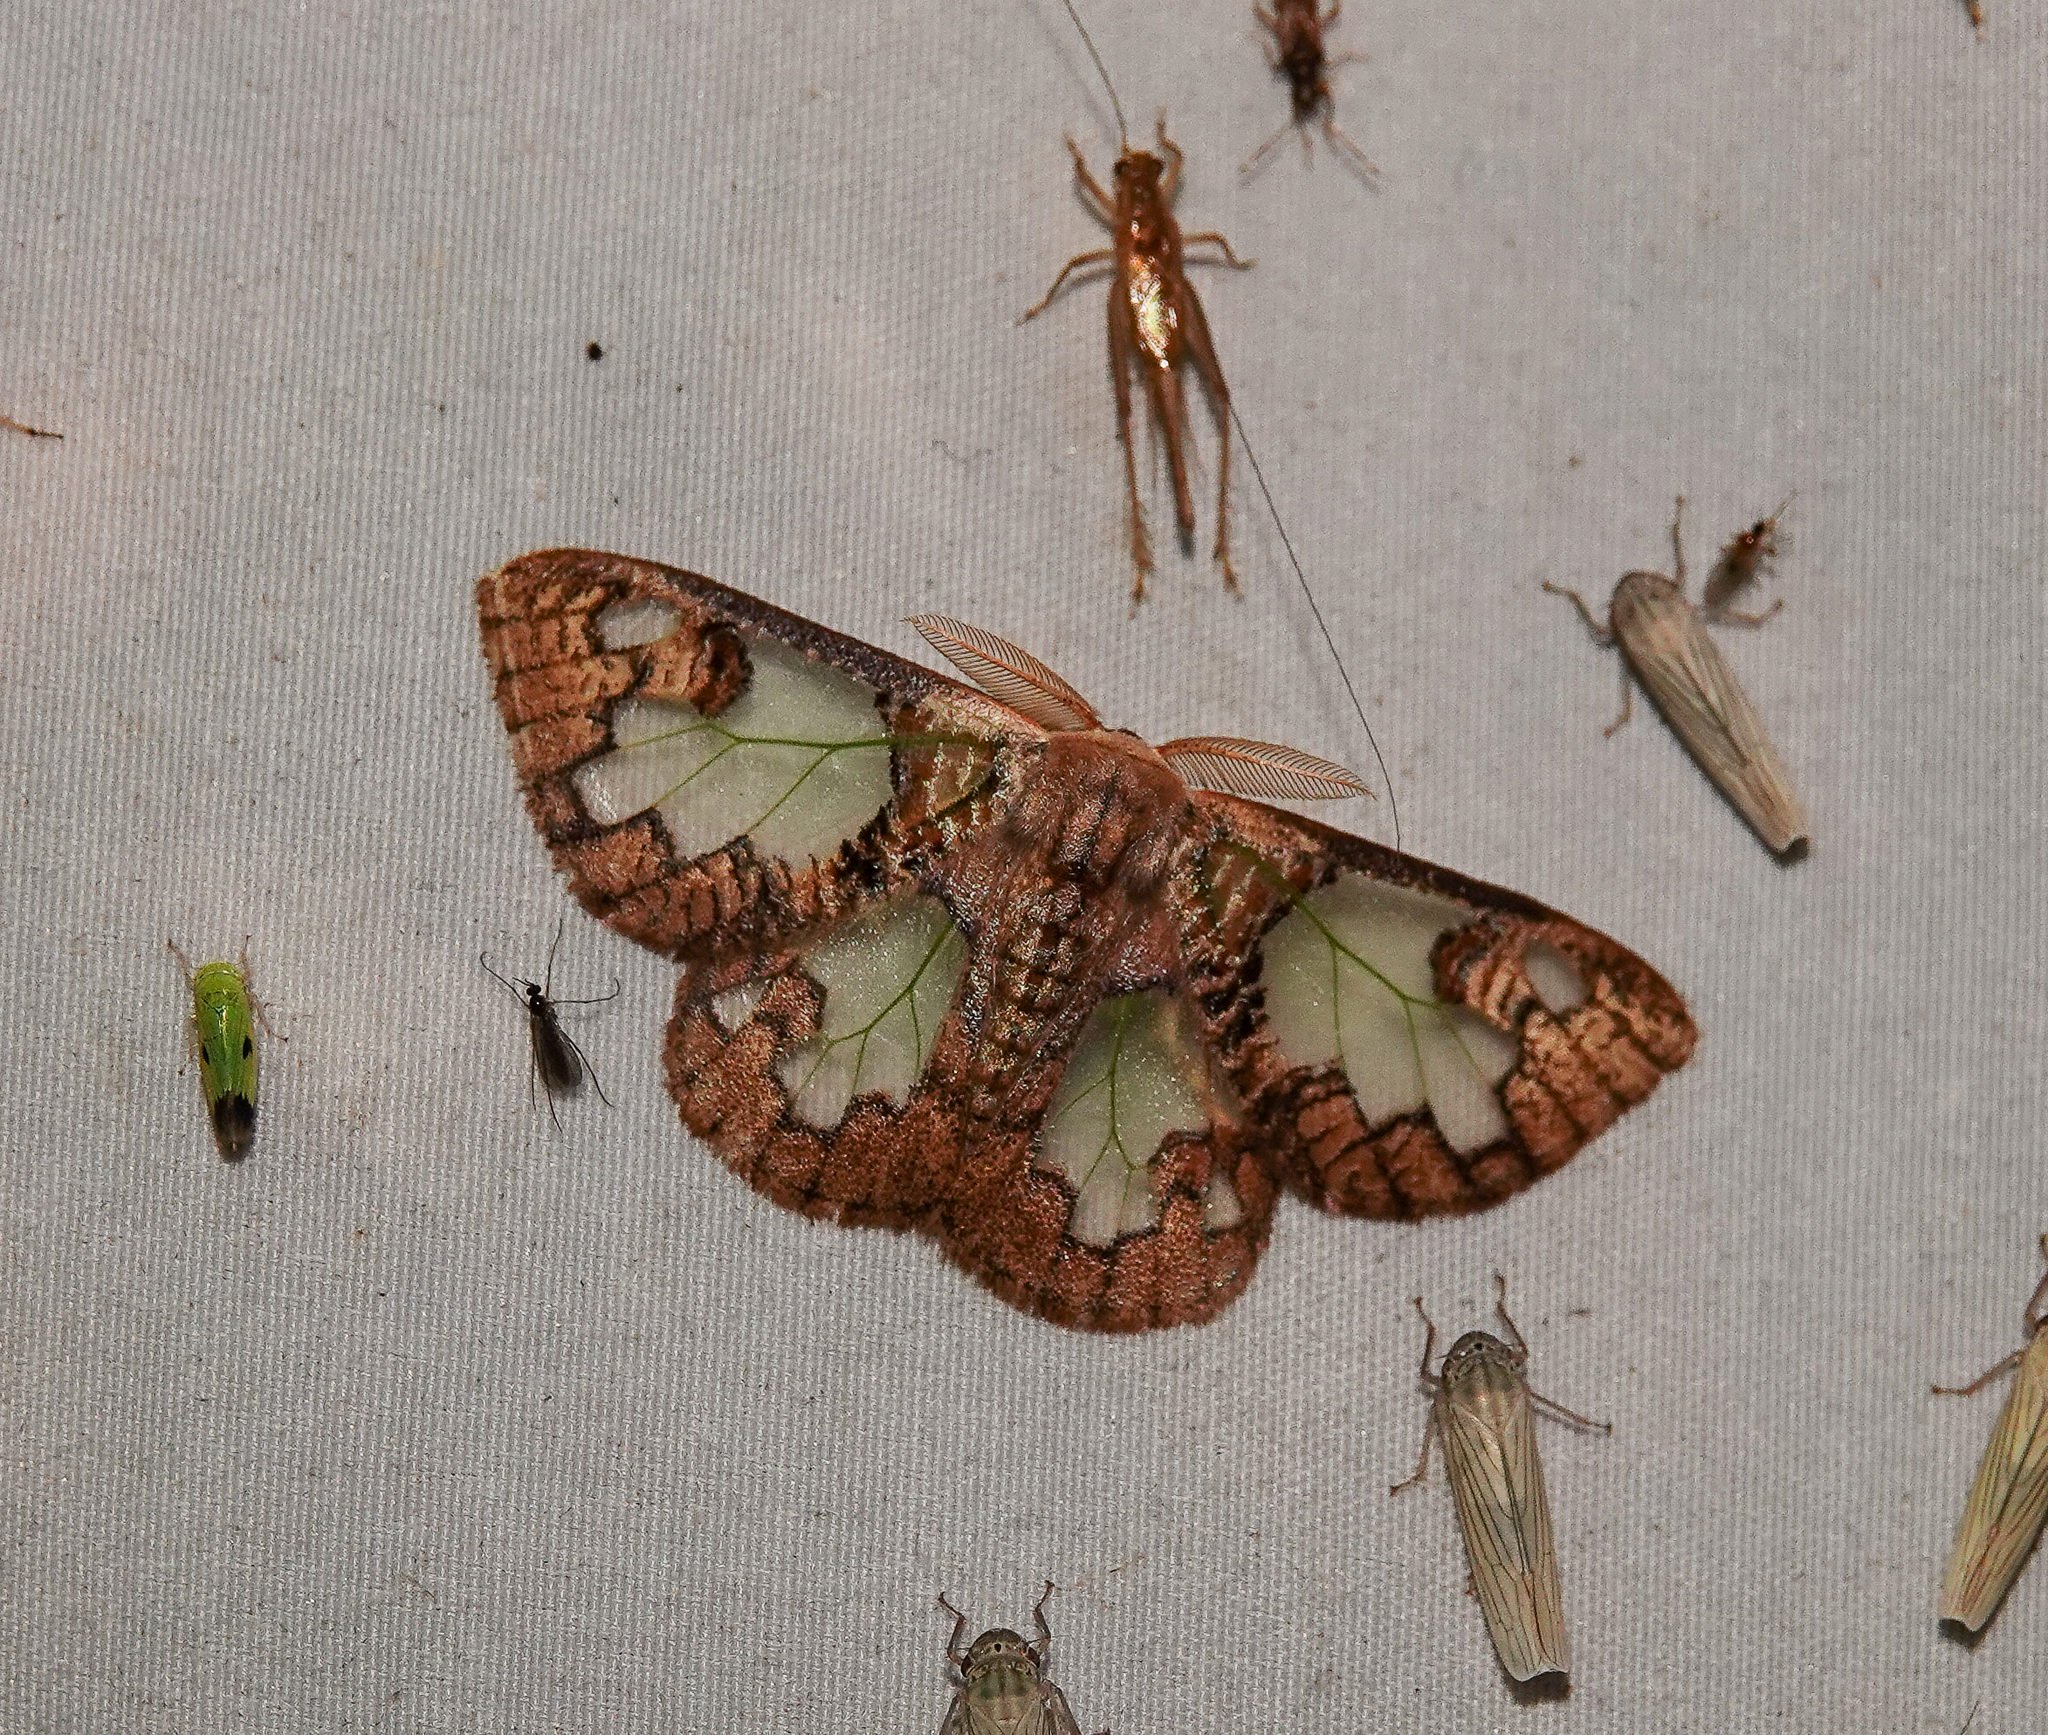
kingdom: Animalia
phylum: Arthropoda
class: Insecta
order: Lepidoptera
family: Erebidae
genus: Carriola
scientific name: Carriola ecnomoda
